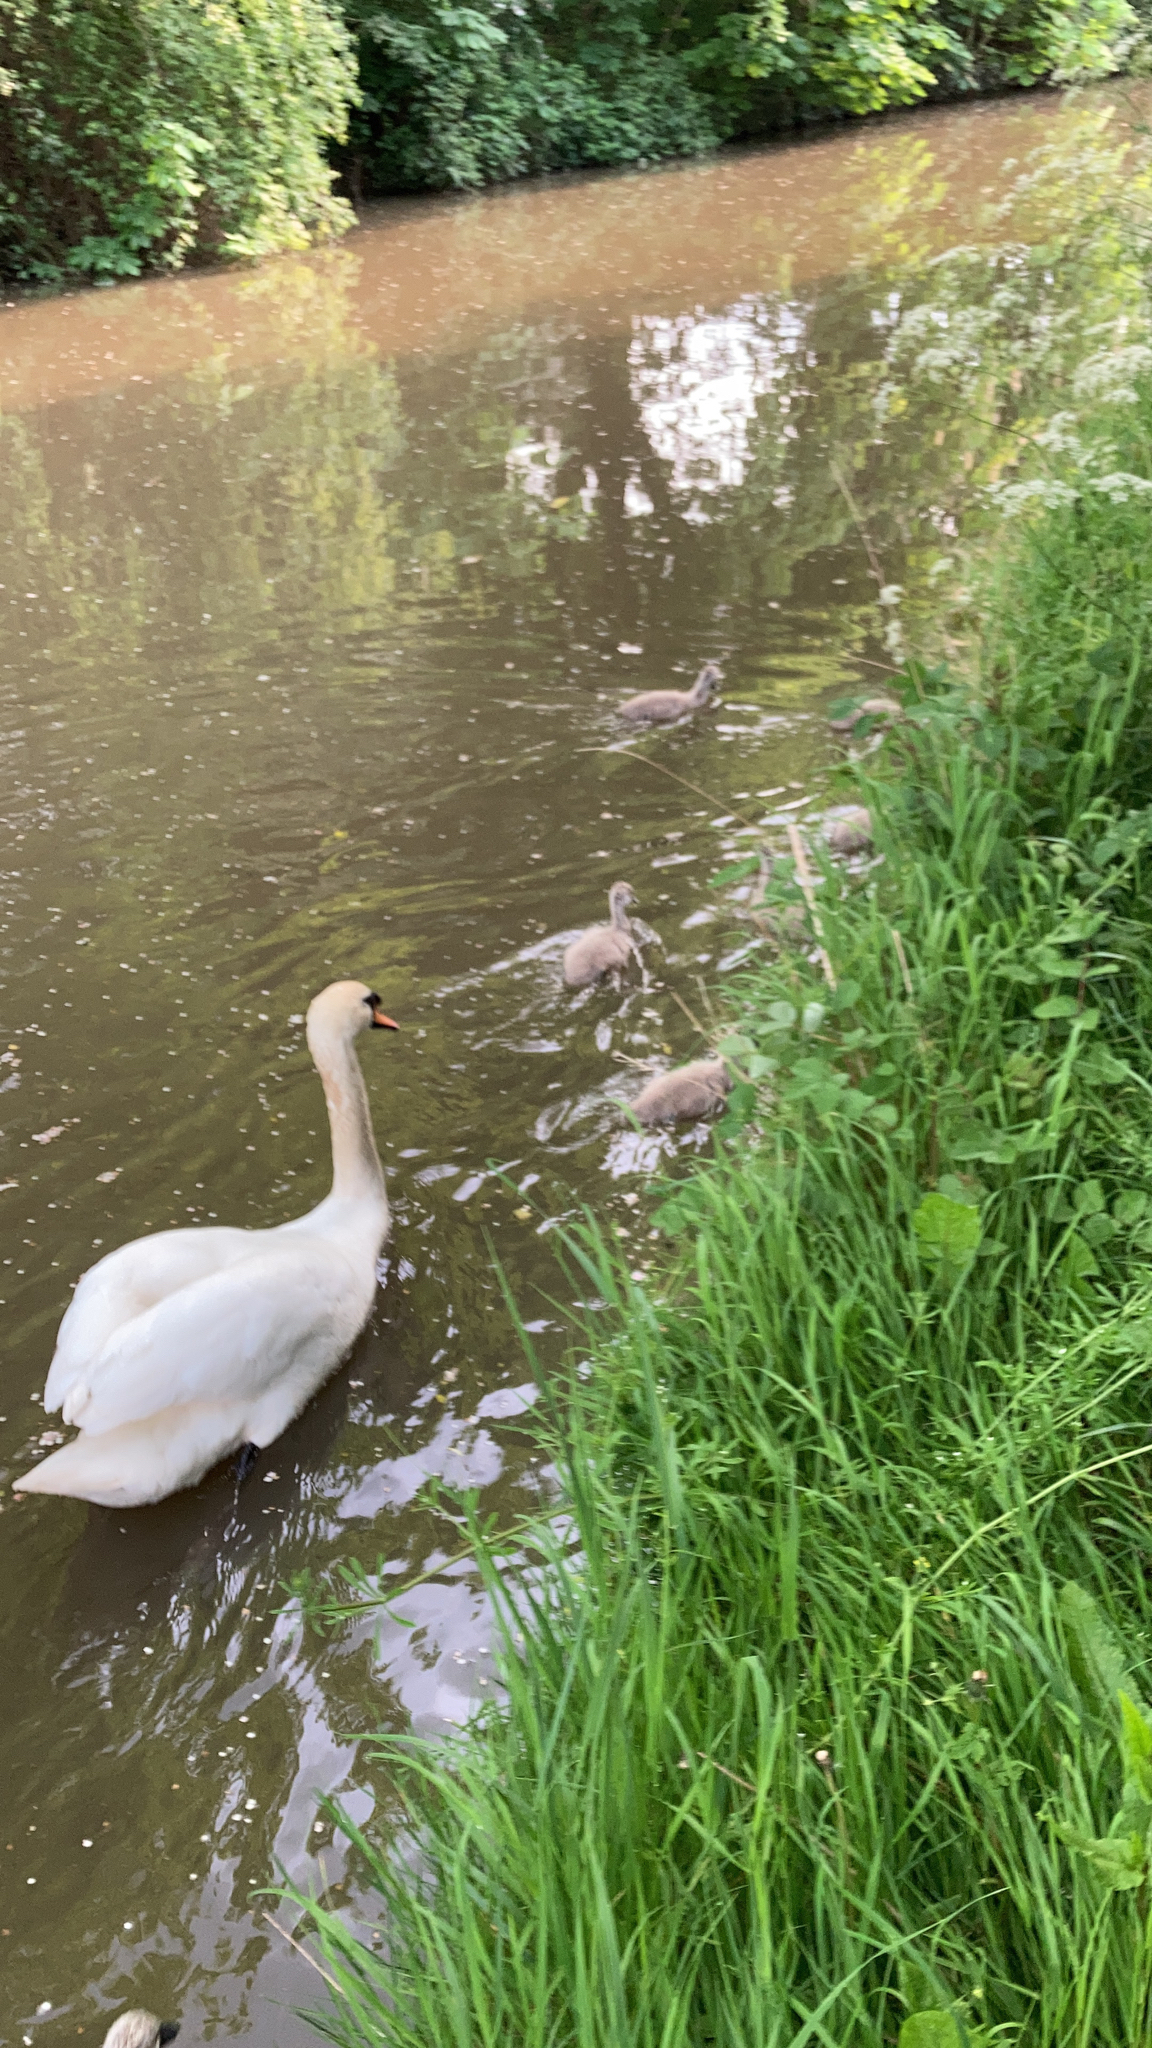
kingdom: Animalia
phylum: Chordata
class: Aves
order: Anseriformes
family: Anatidae
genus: Cygnus
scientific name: Cygnus olor
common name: Mute swan
